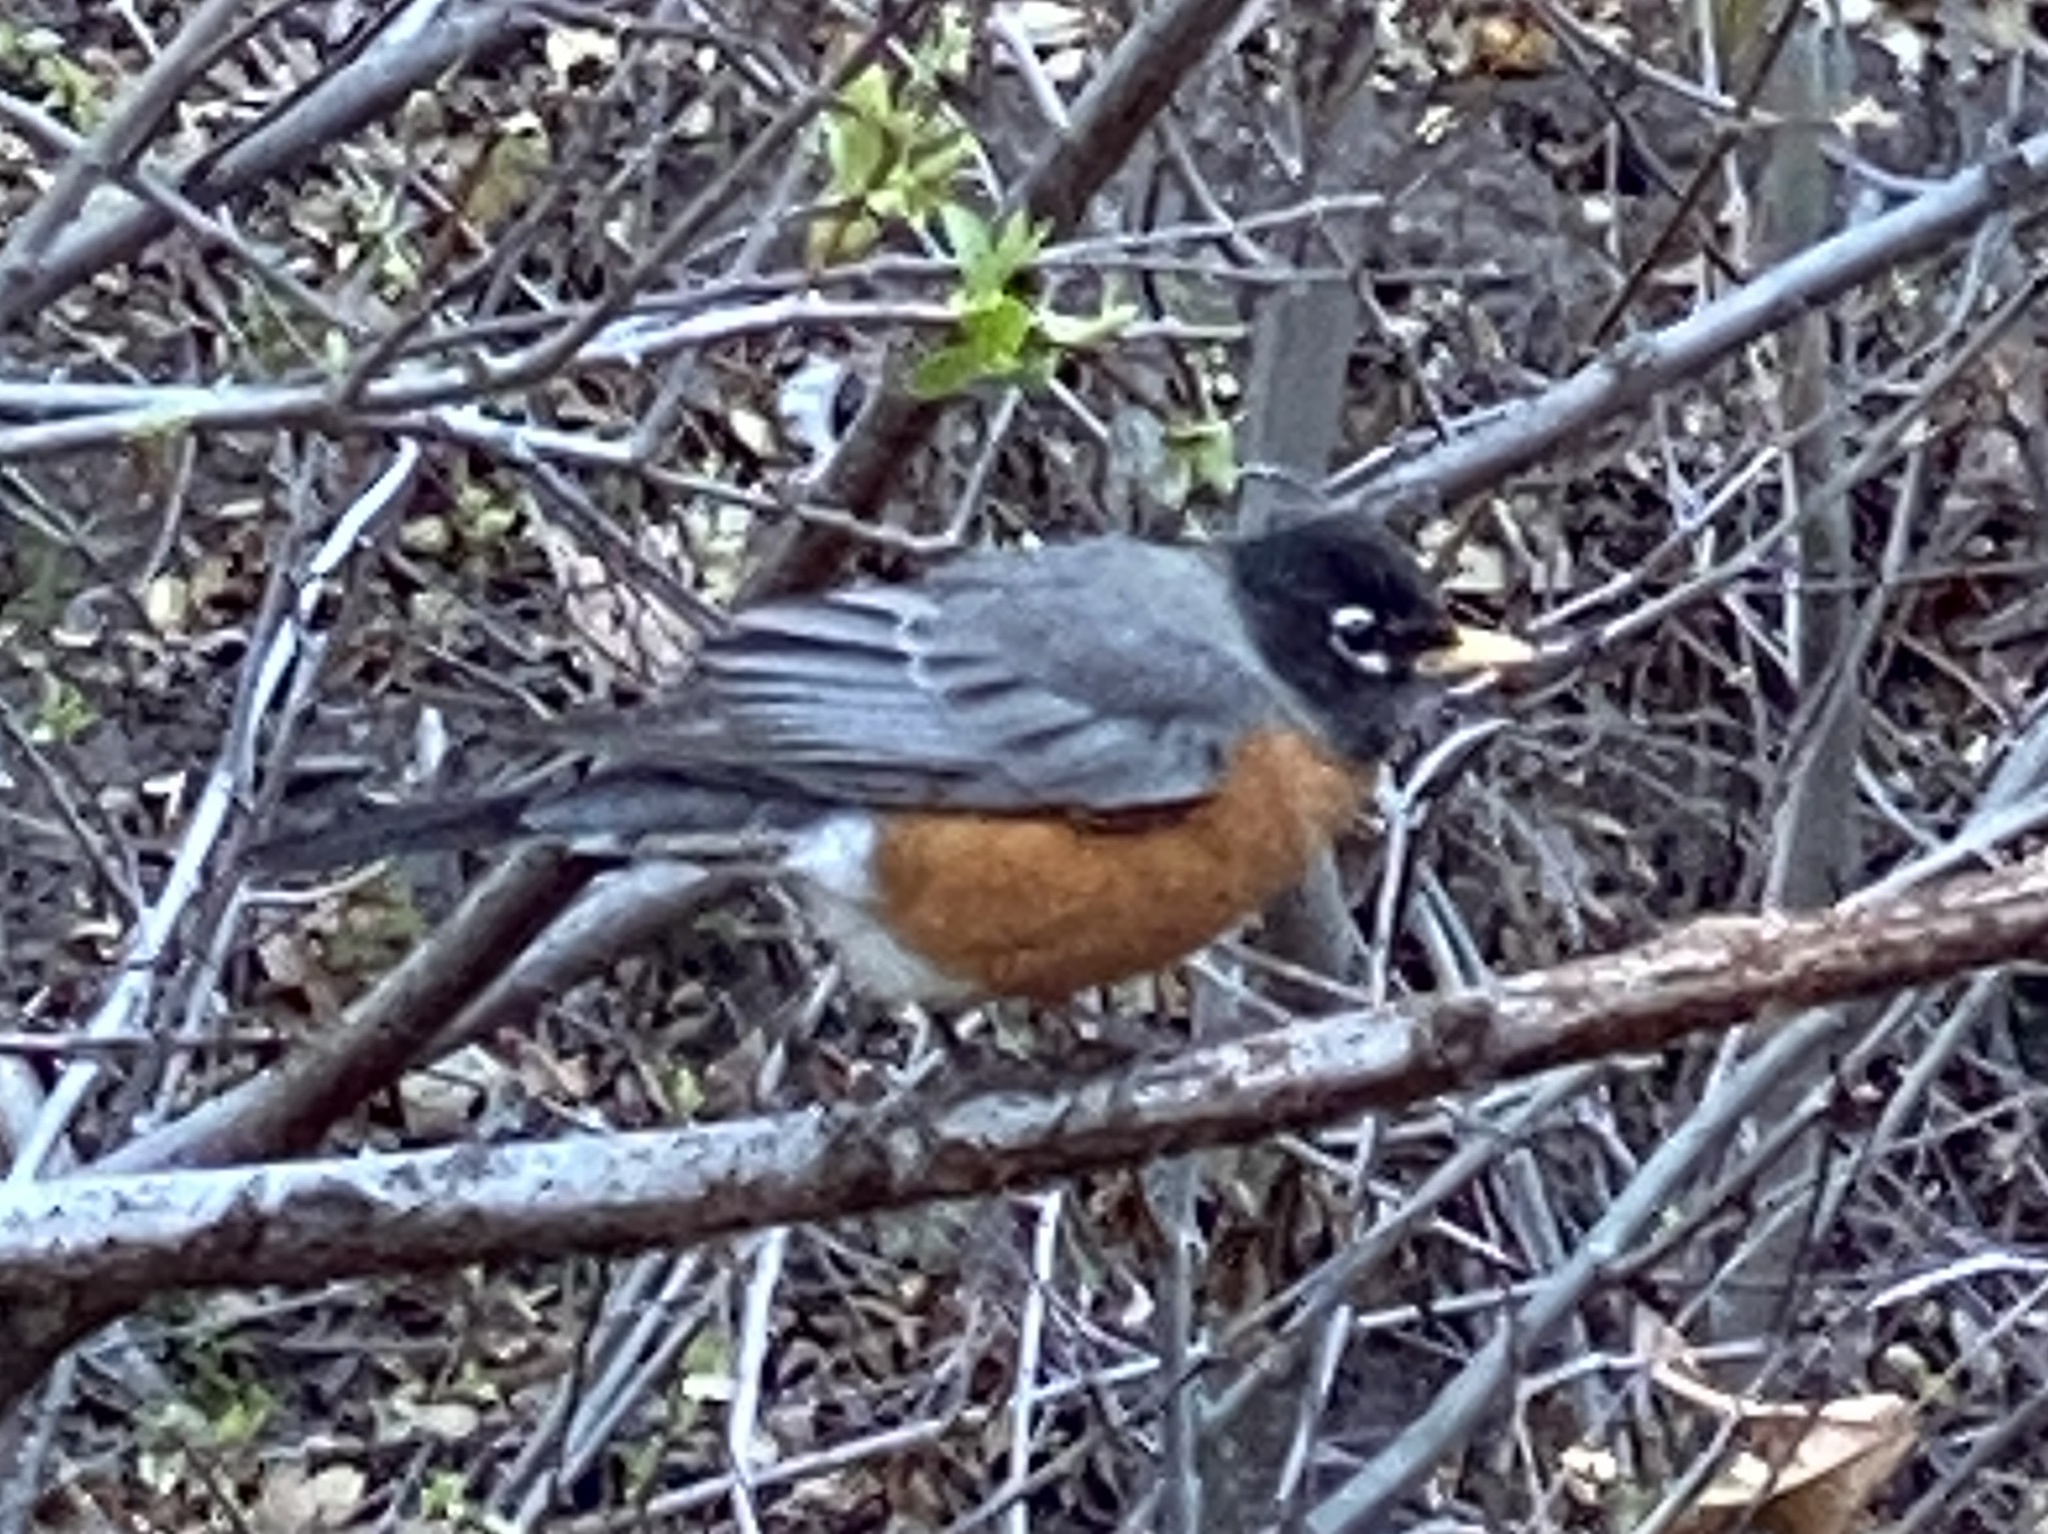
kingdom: Animalia
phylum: Chordata
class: Aves
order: Passeriformes
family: Turdidae
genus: Turdus
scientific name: Turdus migratorius
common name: American robin
